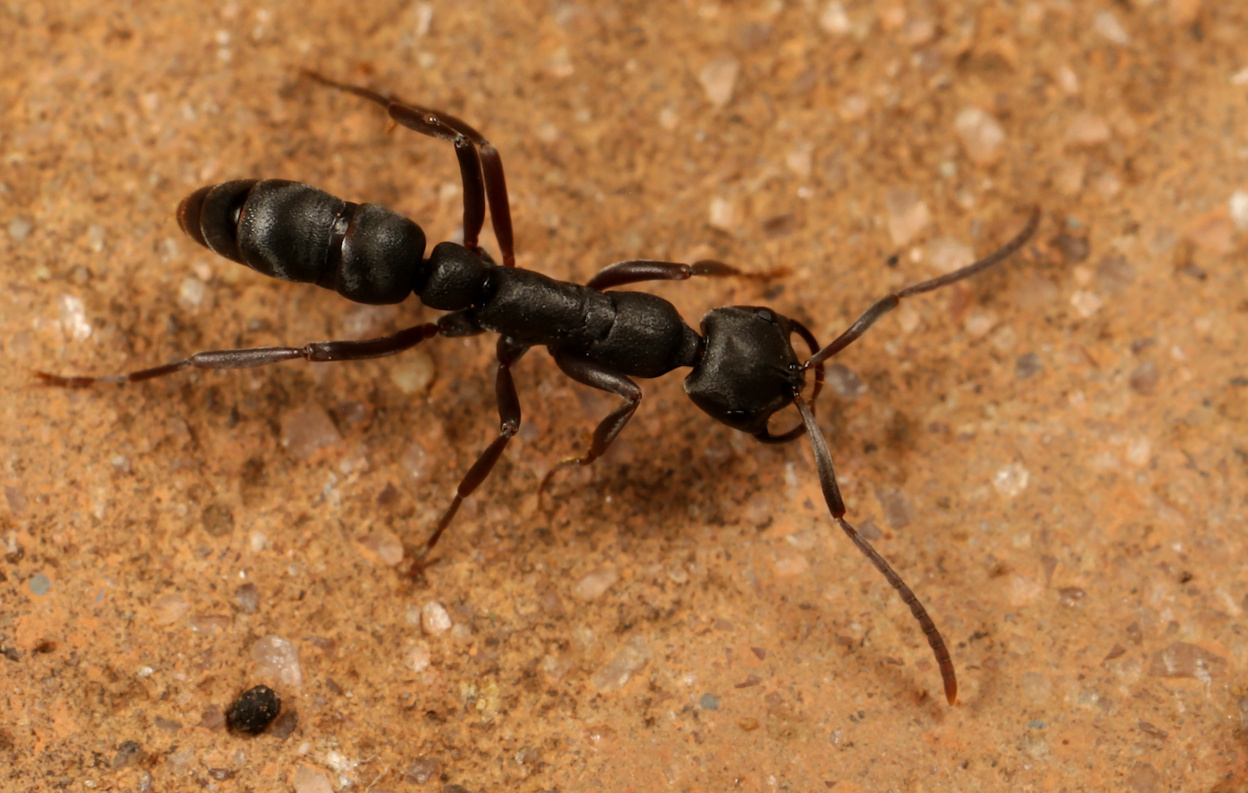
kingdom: Animalia
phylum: Arthropoda
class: Insecta
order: Hymenoptera
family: Formicidae
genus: Leptogenys
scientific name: Leptogenys maxillosa
